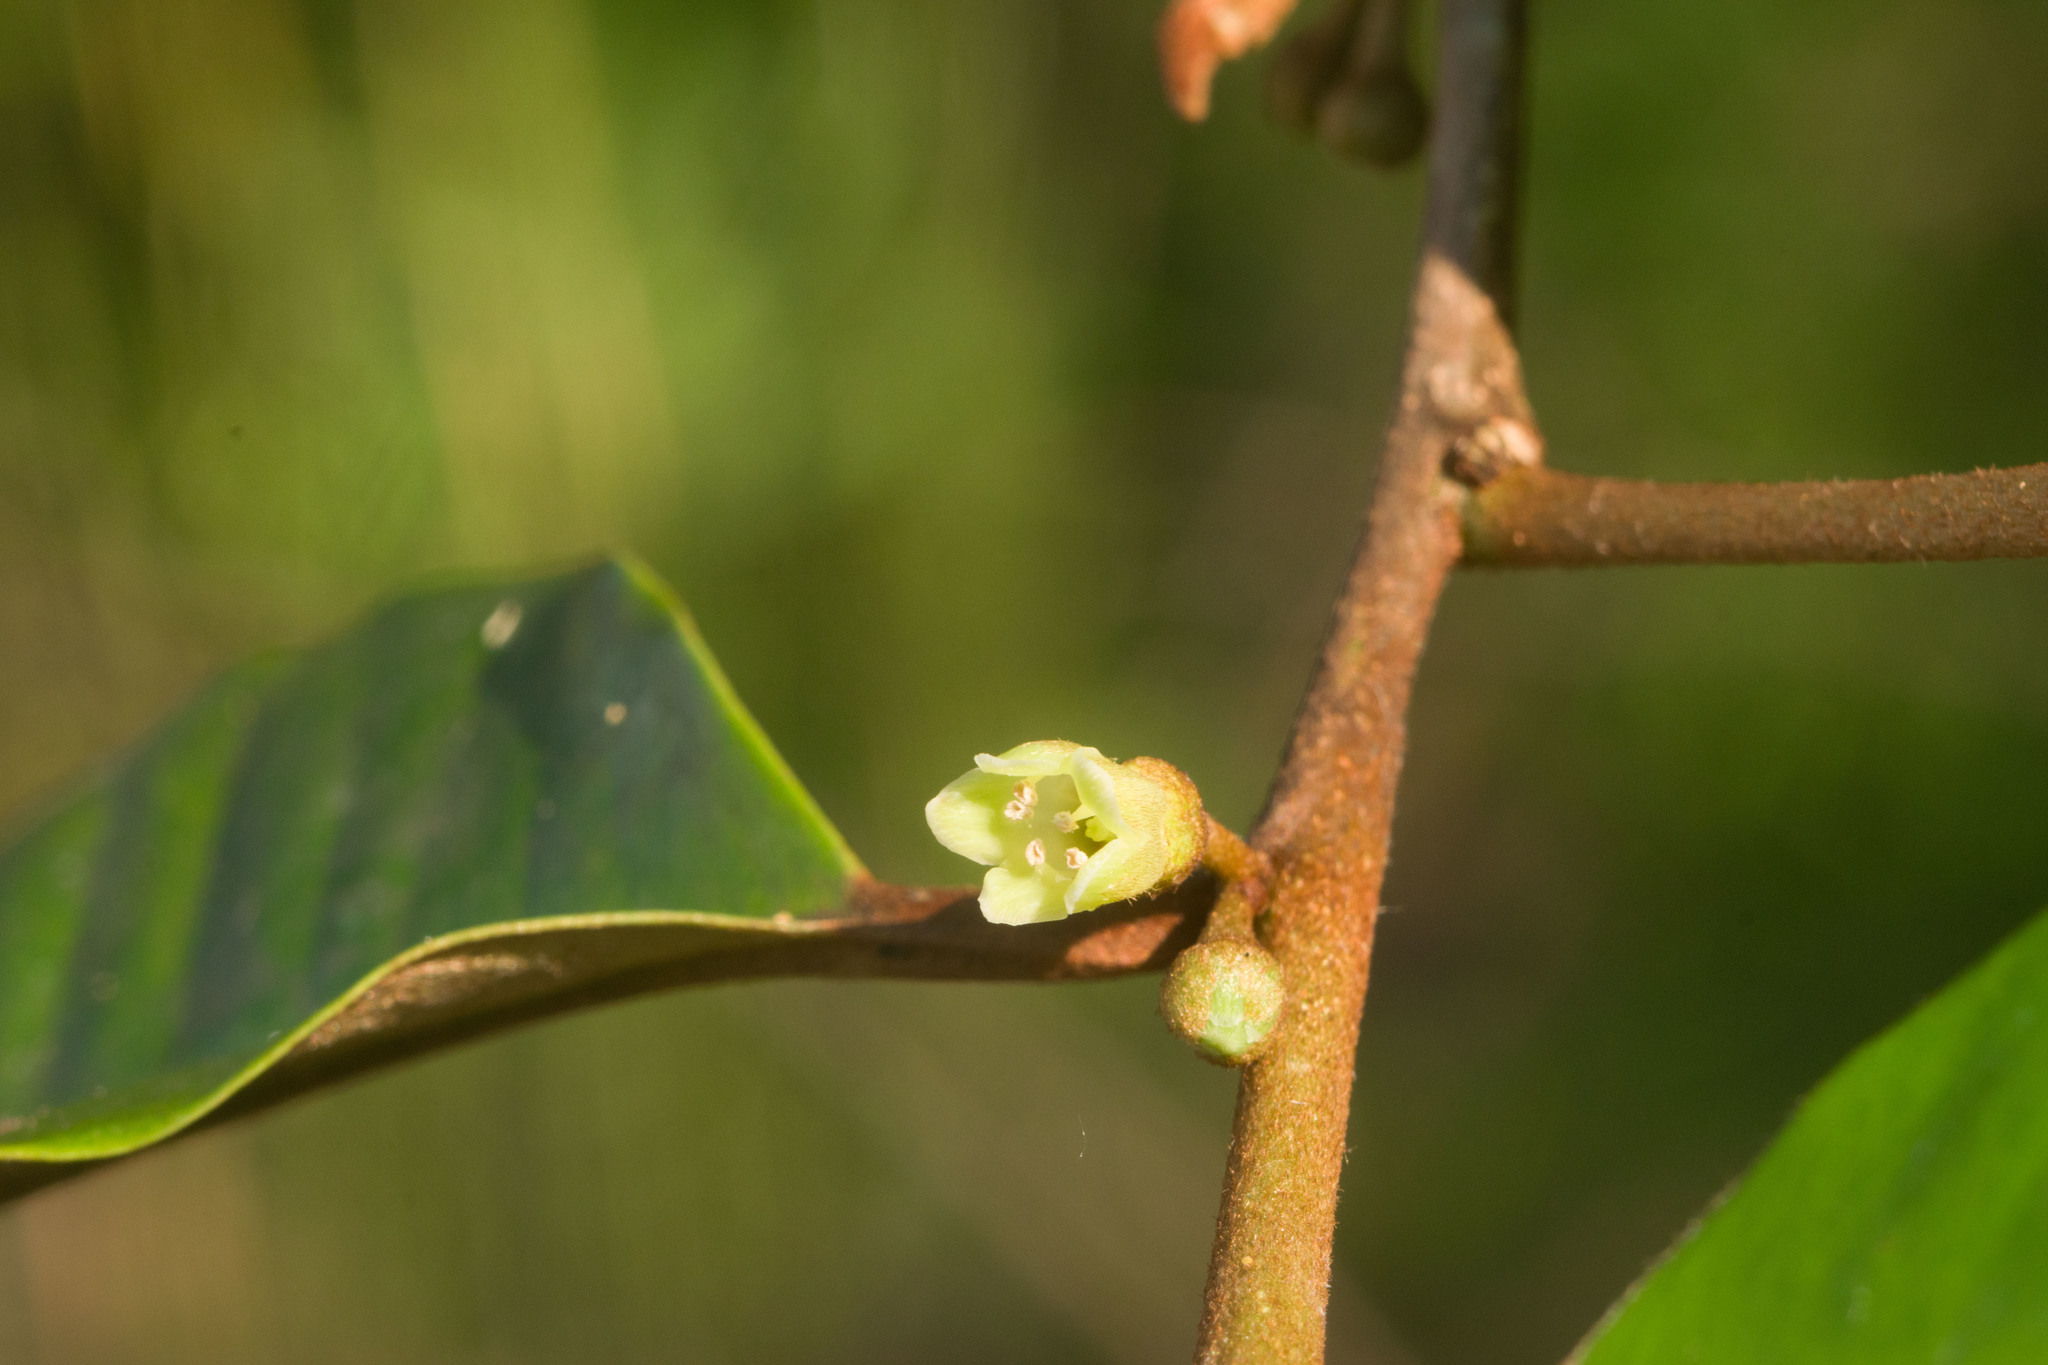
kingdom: Plantae
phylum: Tracheophyta
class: Magnoliopsida
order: Ericales
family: Sapotaceae
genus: Chrysophyllum
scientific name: Chrysophyllum oliviforme
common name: Satinleaf
